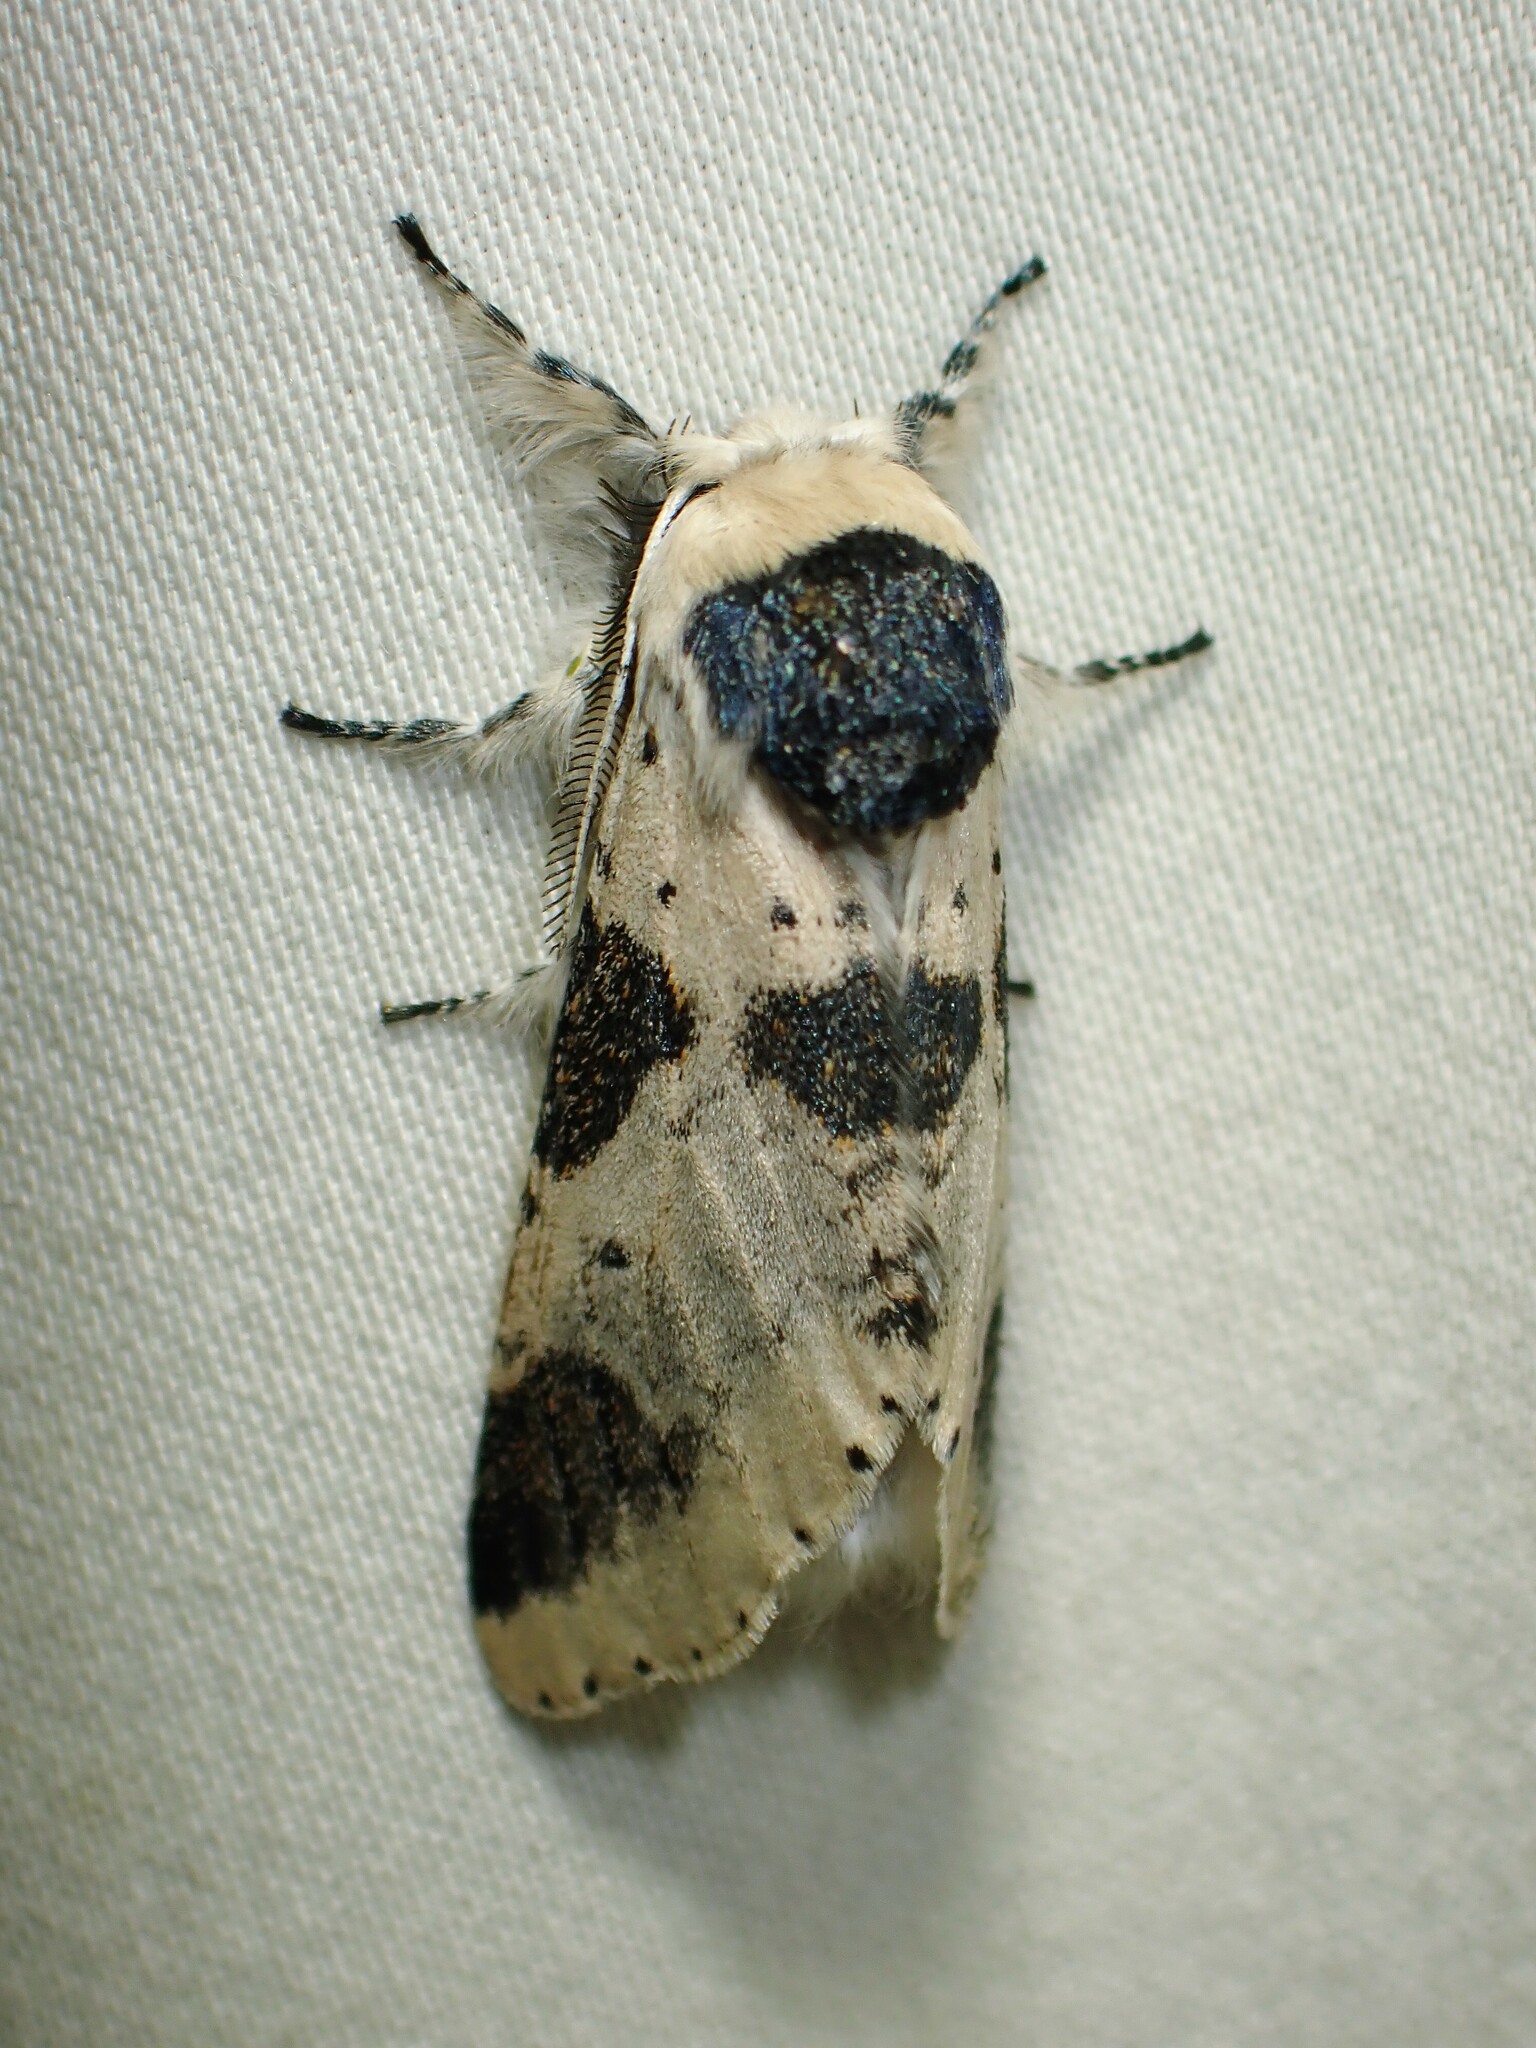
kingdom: Animalia
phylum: Arthropoda
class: Insecta
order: Lepidoptera
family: Notodontidae
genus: Furcula
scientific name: Furcula modesta
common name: Modest furcula moth
